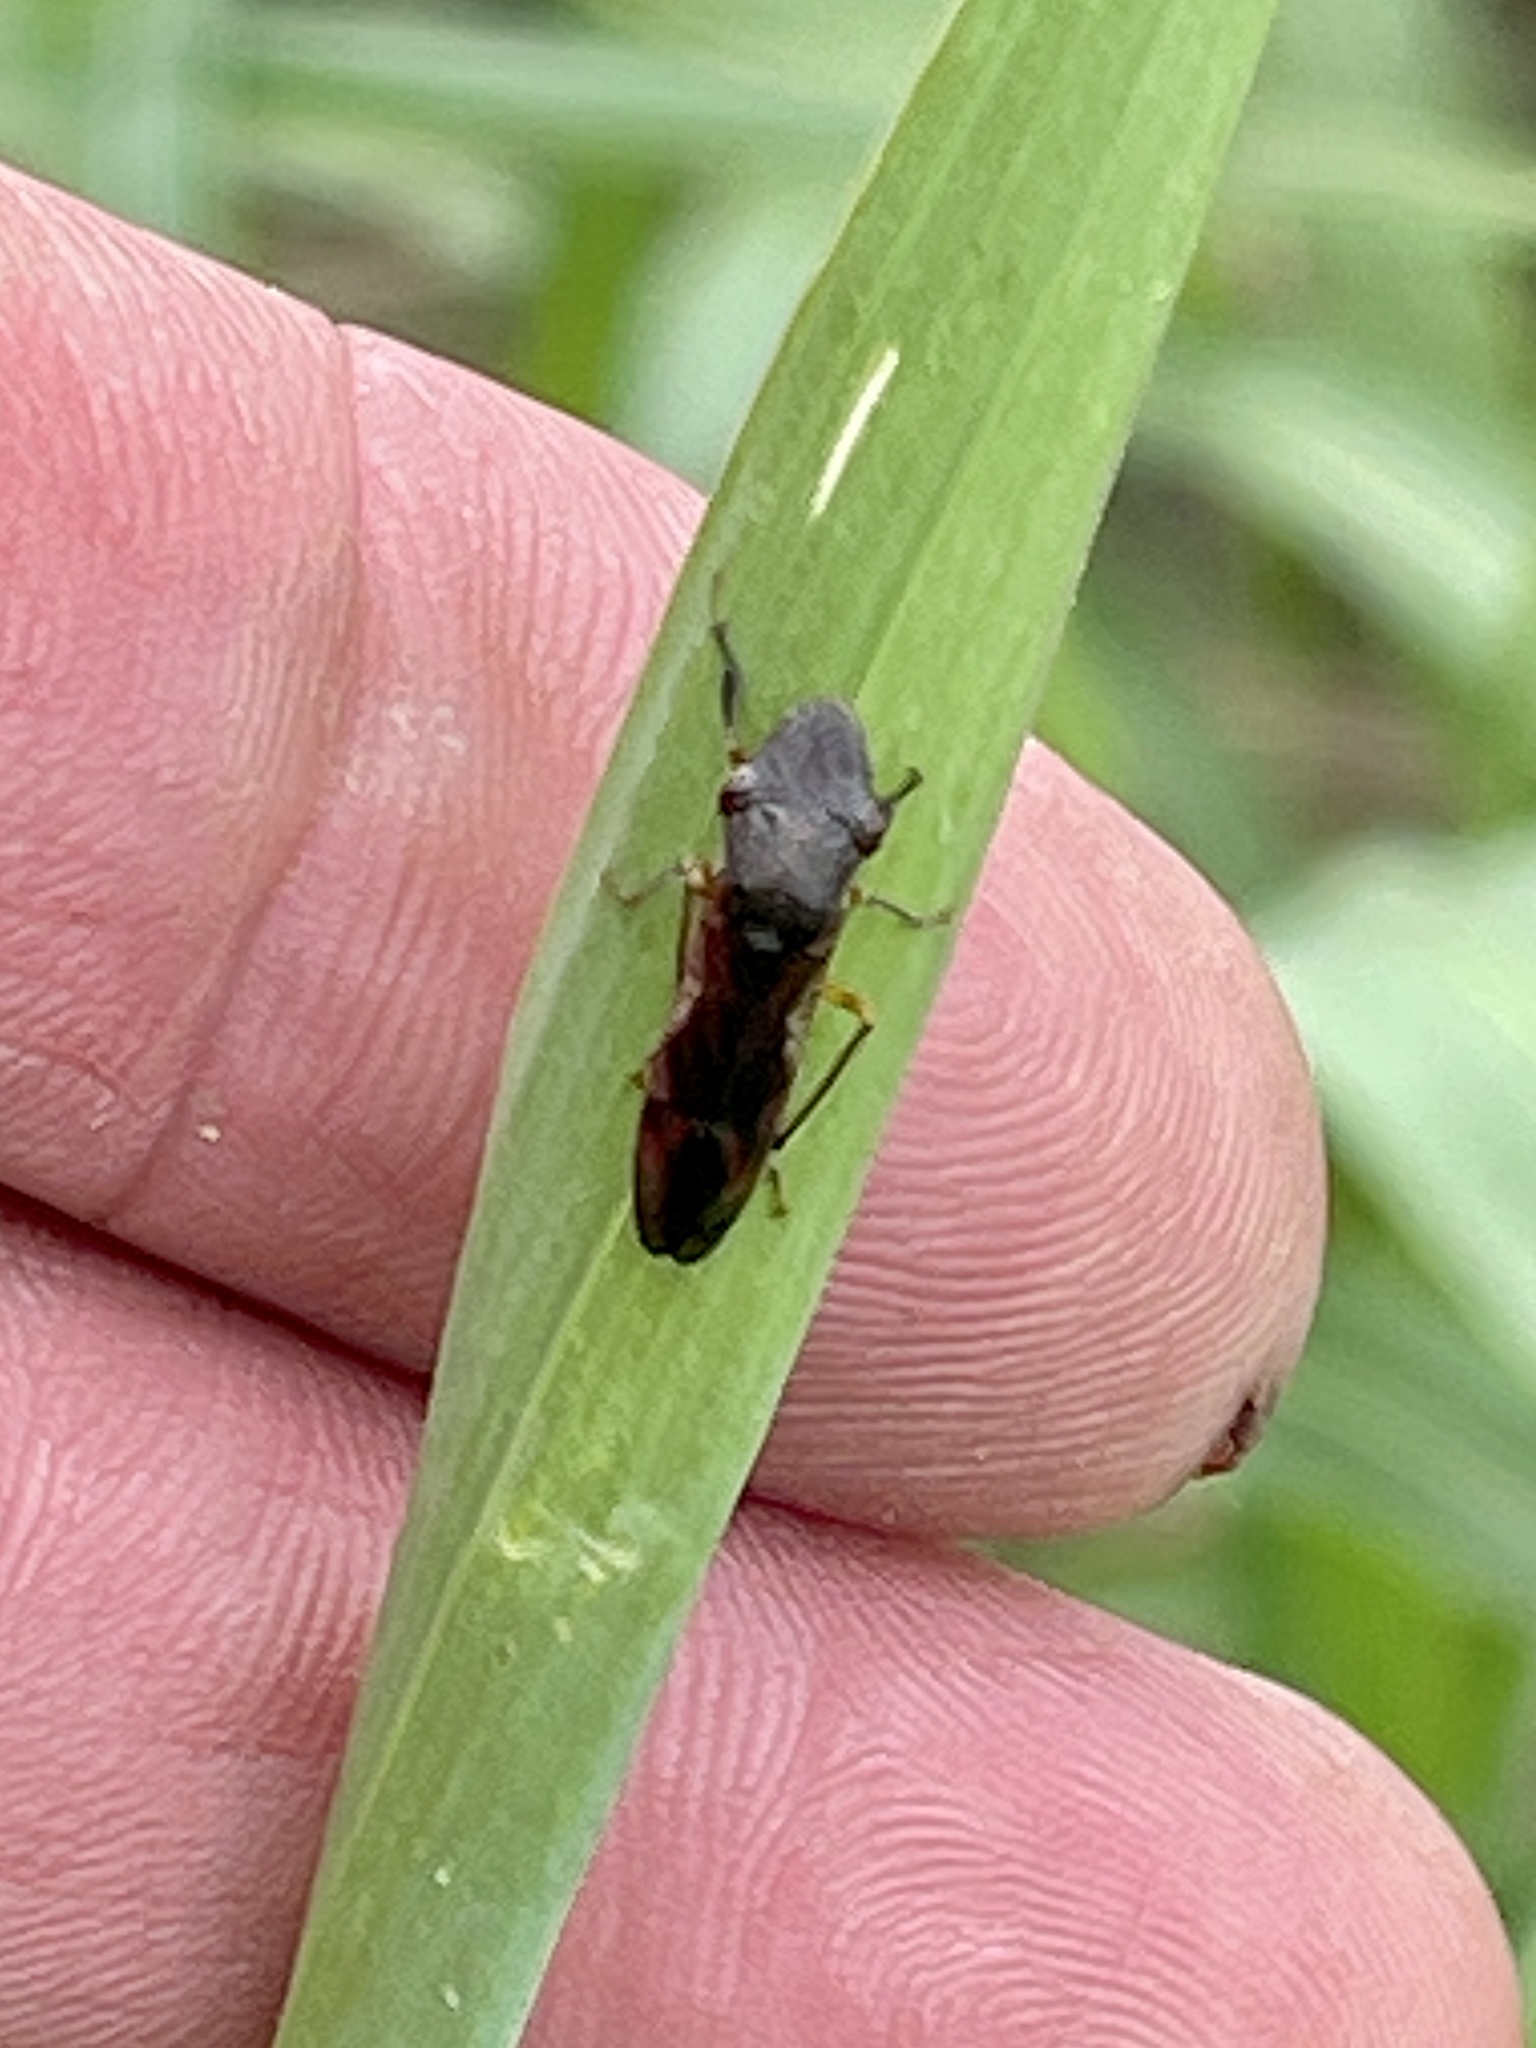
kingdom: Animalia
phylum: Arthropoda
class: Insecta
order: Hemiptera
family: Cicadellidae
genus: Homalodisca
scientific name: Homalodisca vitripennis
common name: Glassy-winged sharpshooter
